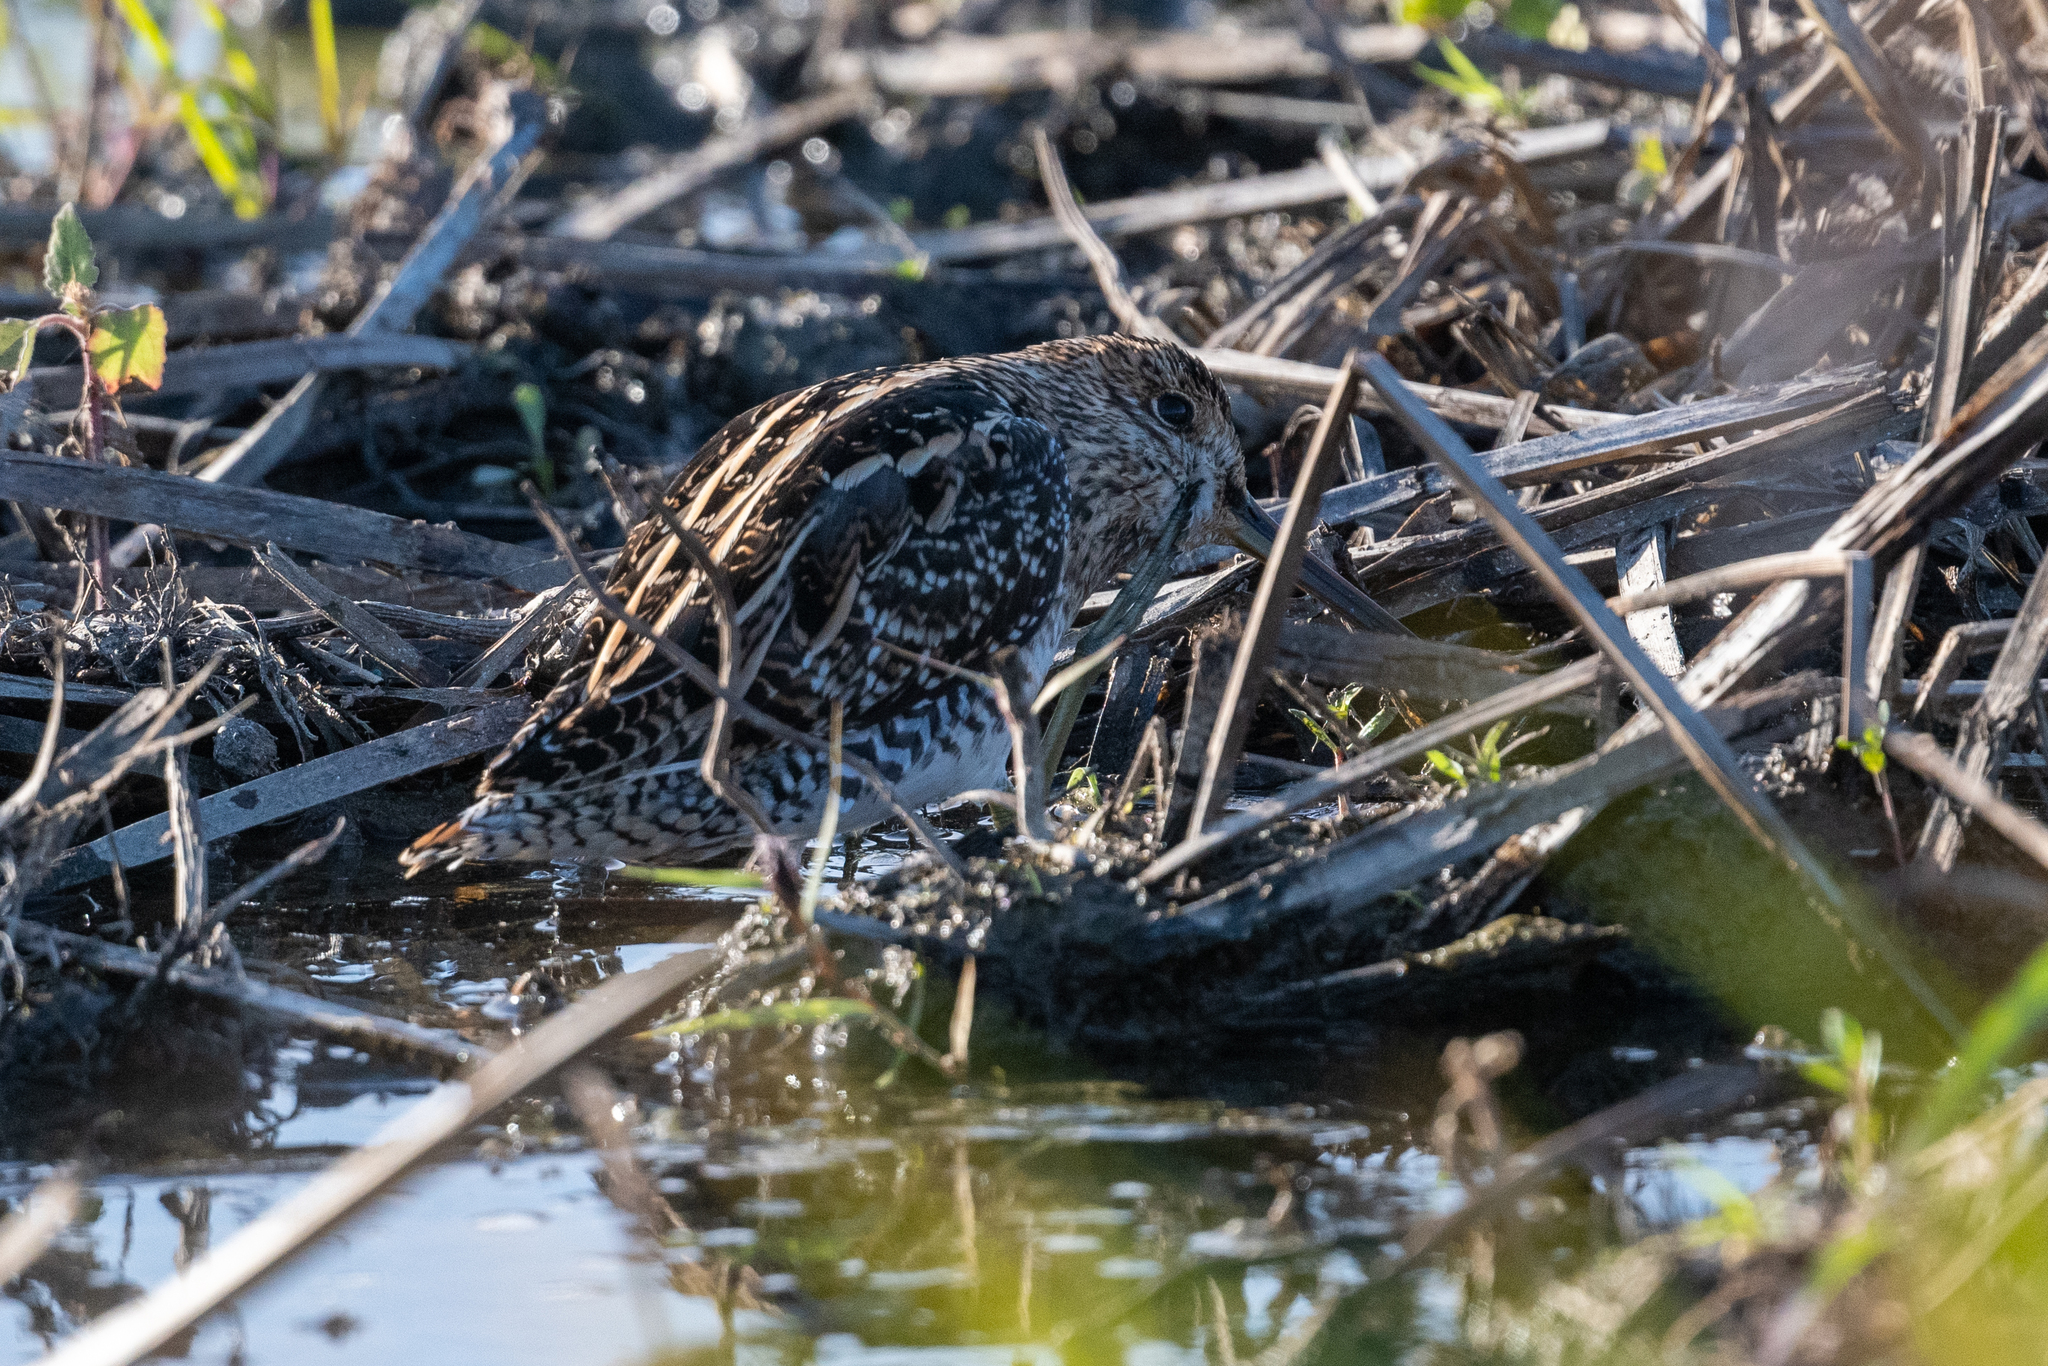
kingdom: Animalia
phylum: Chordata
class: Aves
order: Charadriiformes
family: Scolopacidae
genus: Gallinago
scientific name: Gallinago delicata
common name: Wilson's snipe
